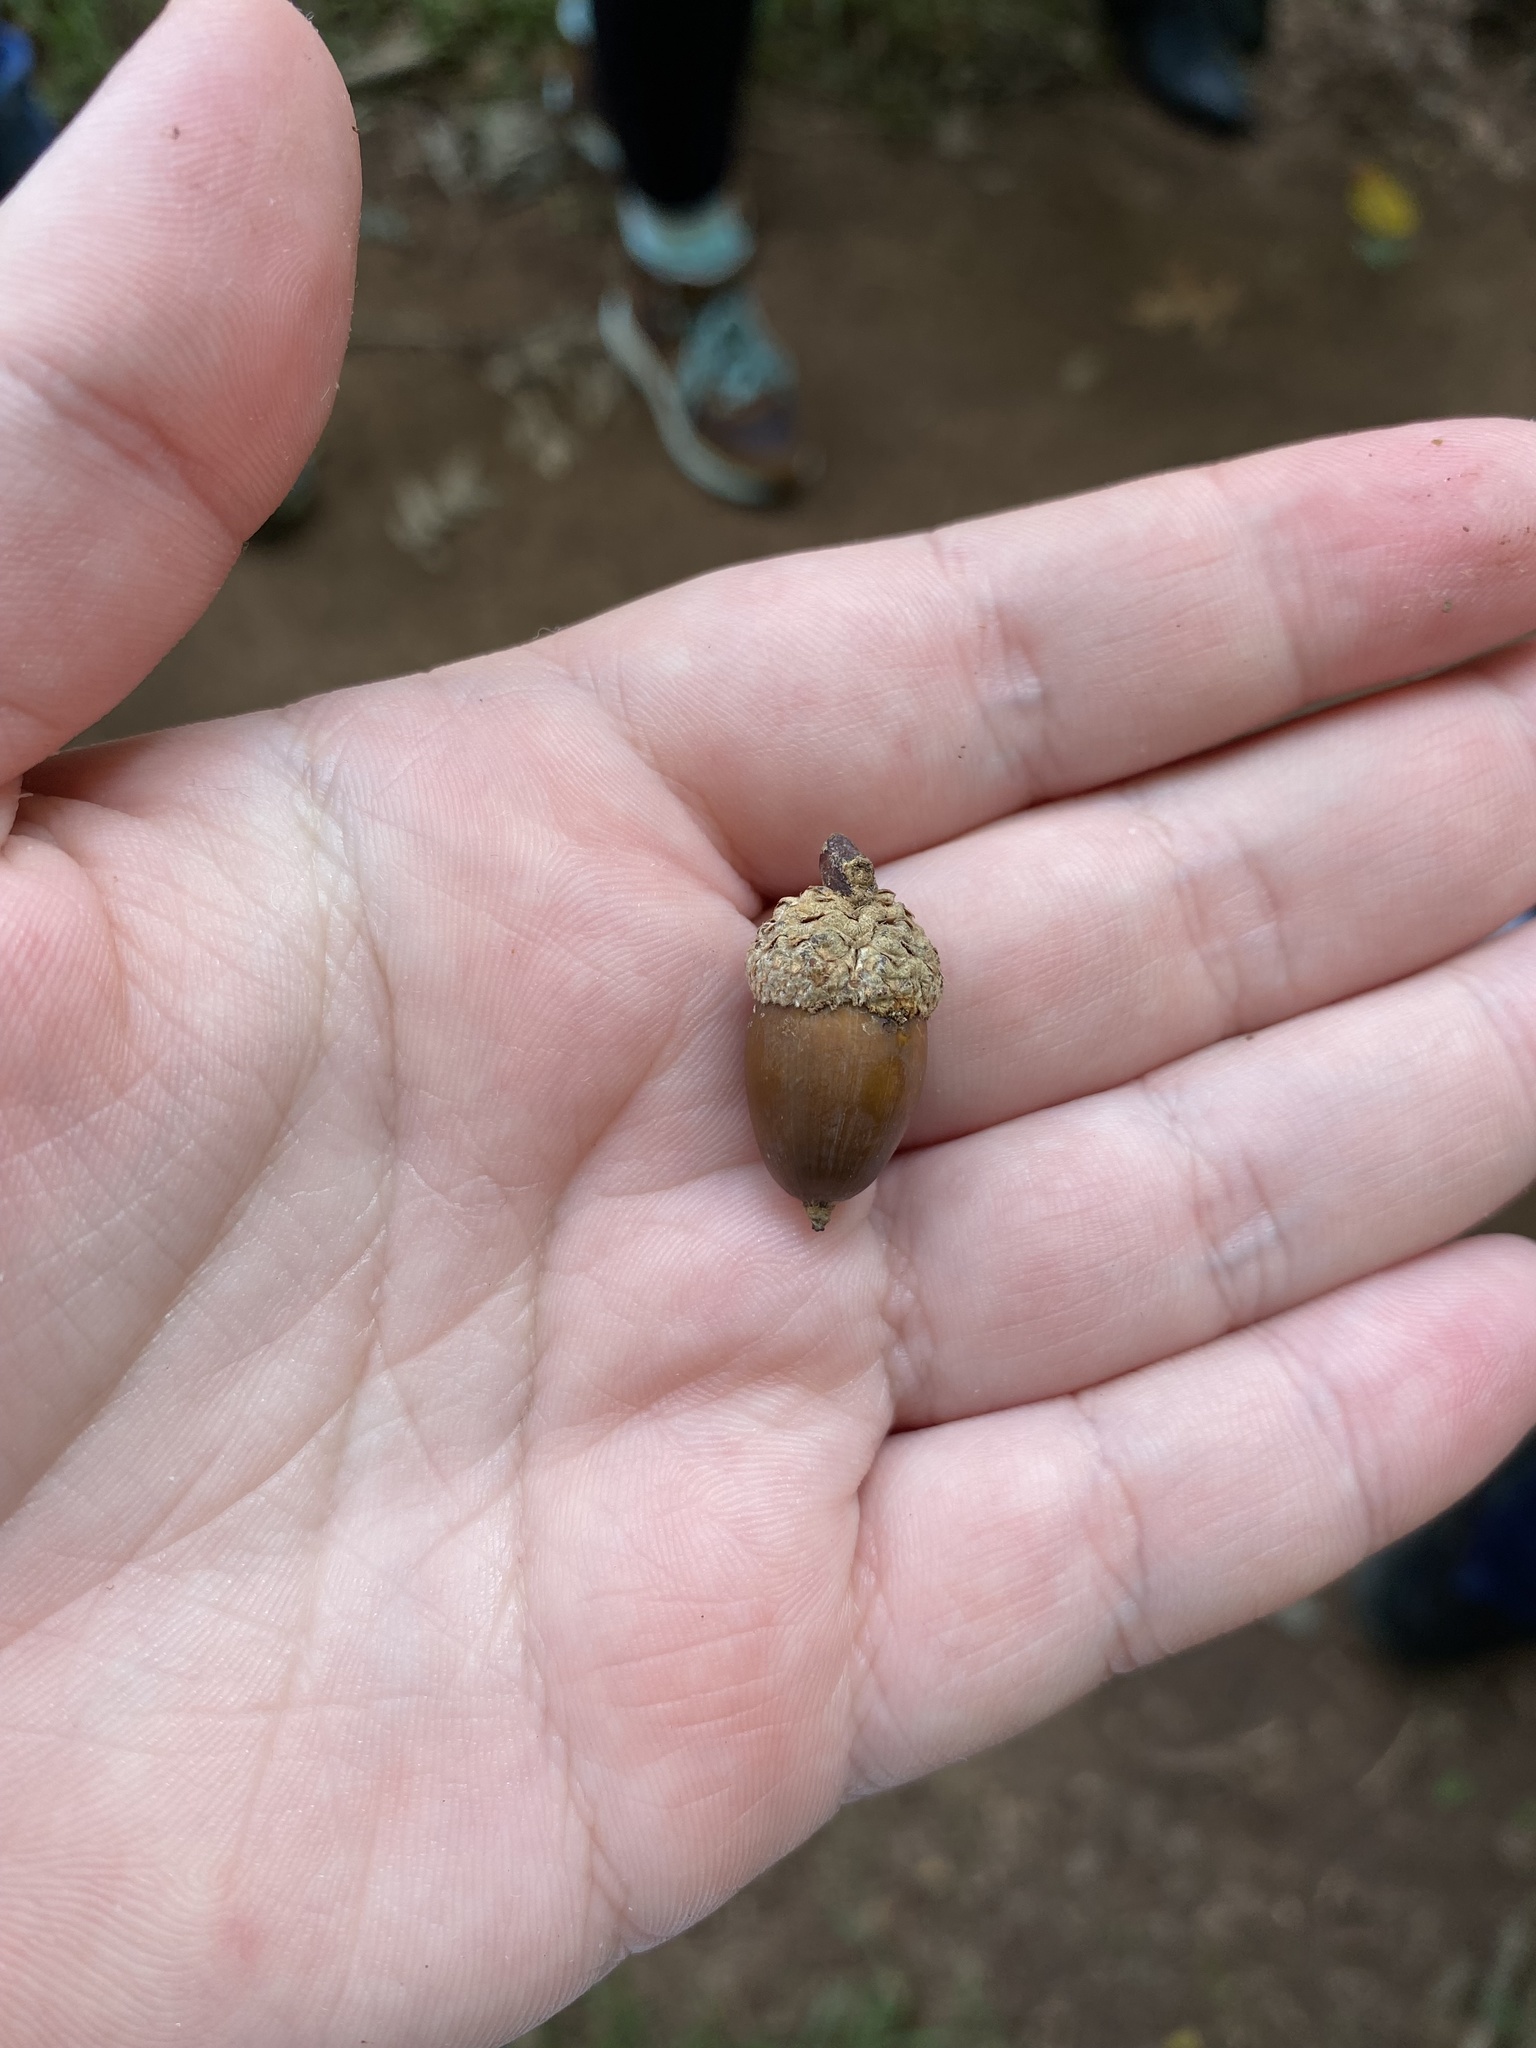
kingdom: Plantae
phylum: Tracheophyta
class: Magnoliopsida
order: Fagales
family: Fagaceae
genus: Quercus
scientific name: Quercus alba
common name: White oak
